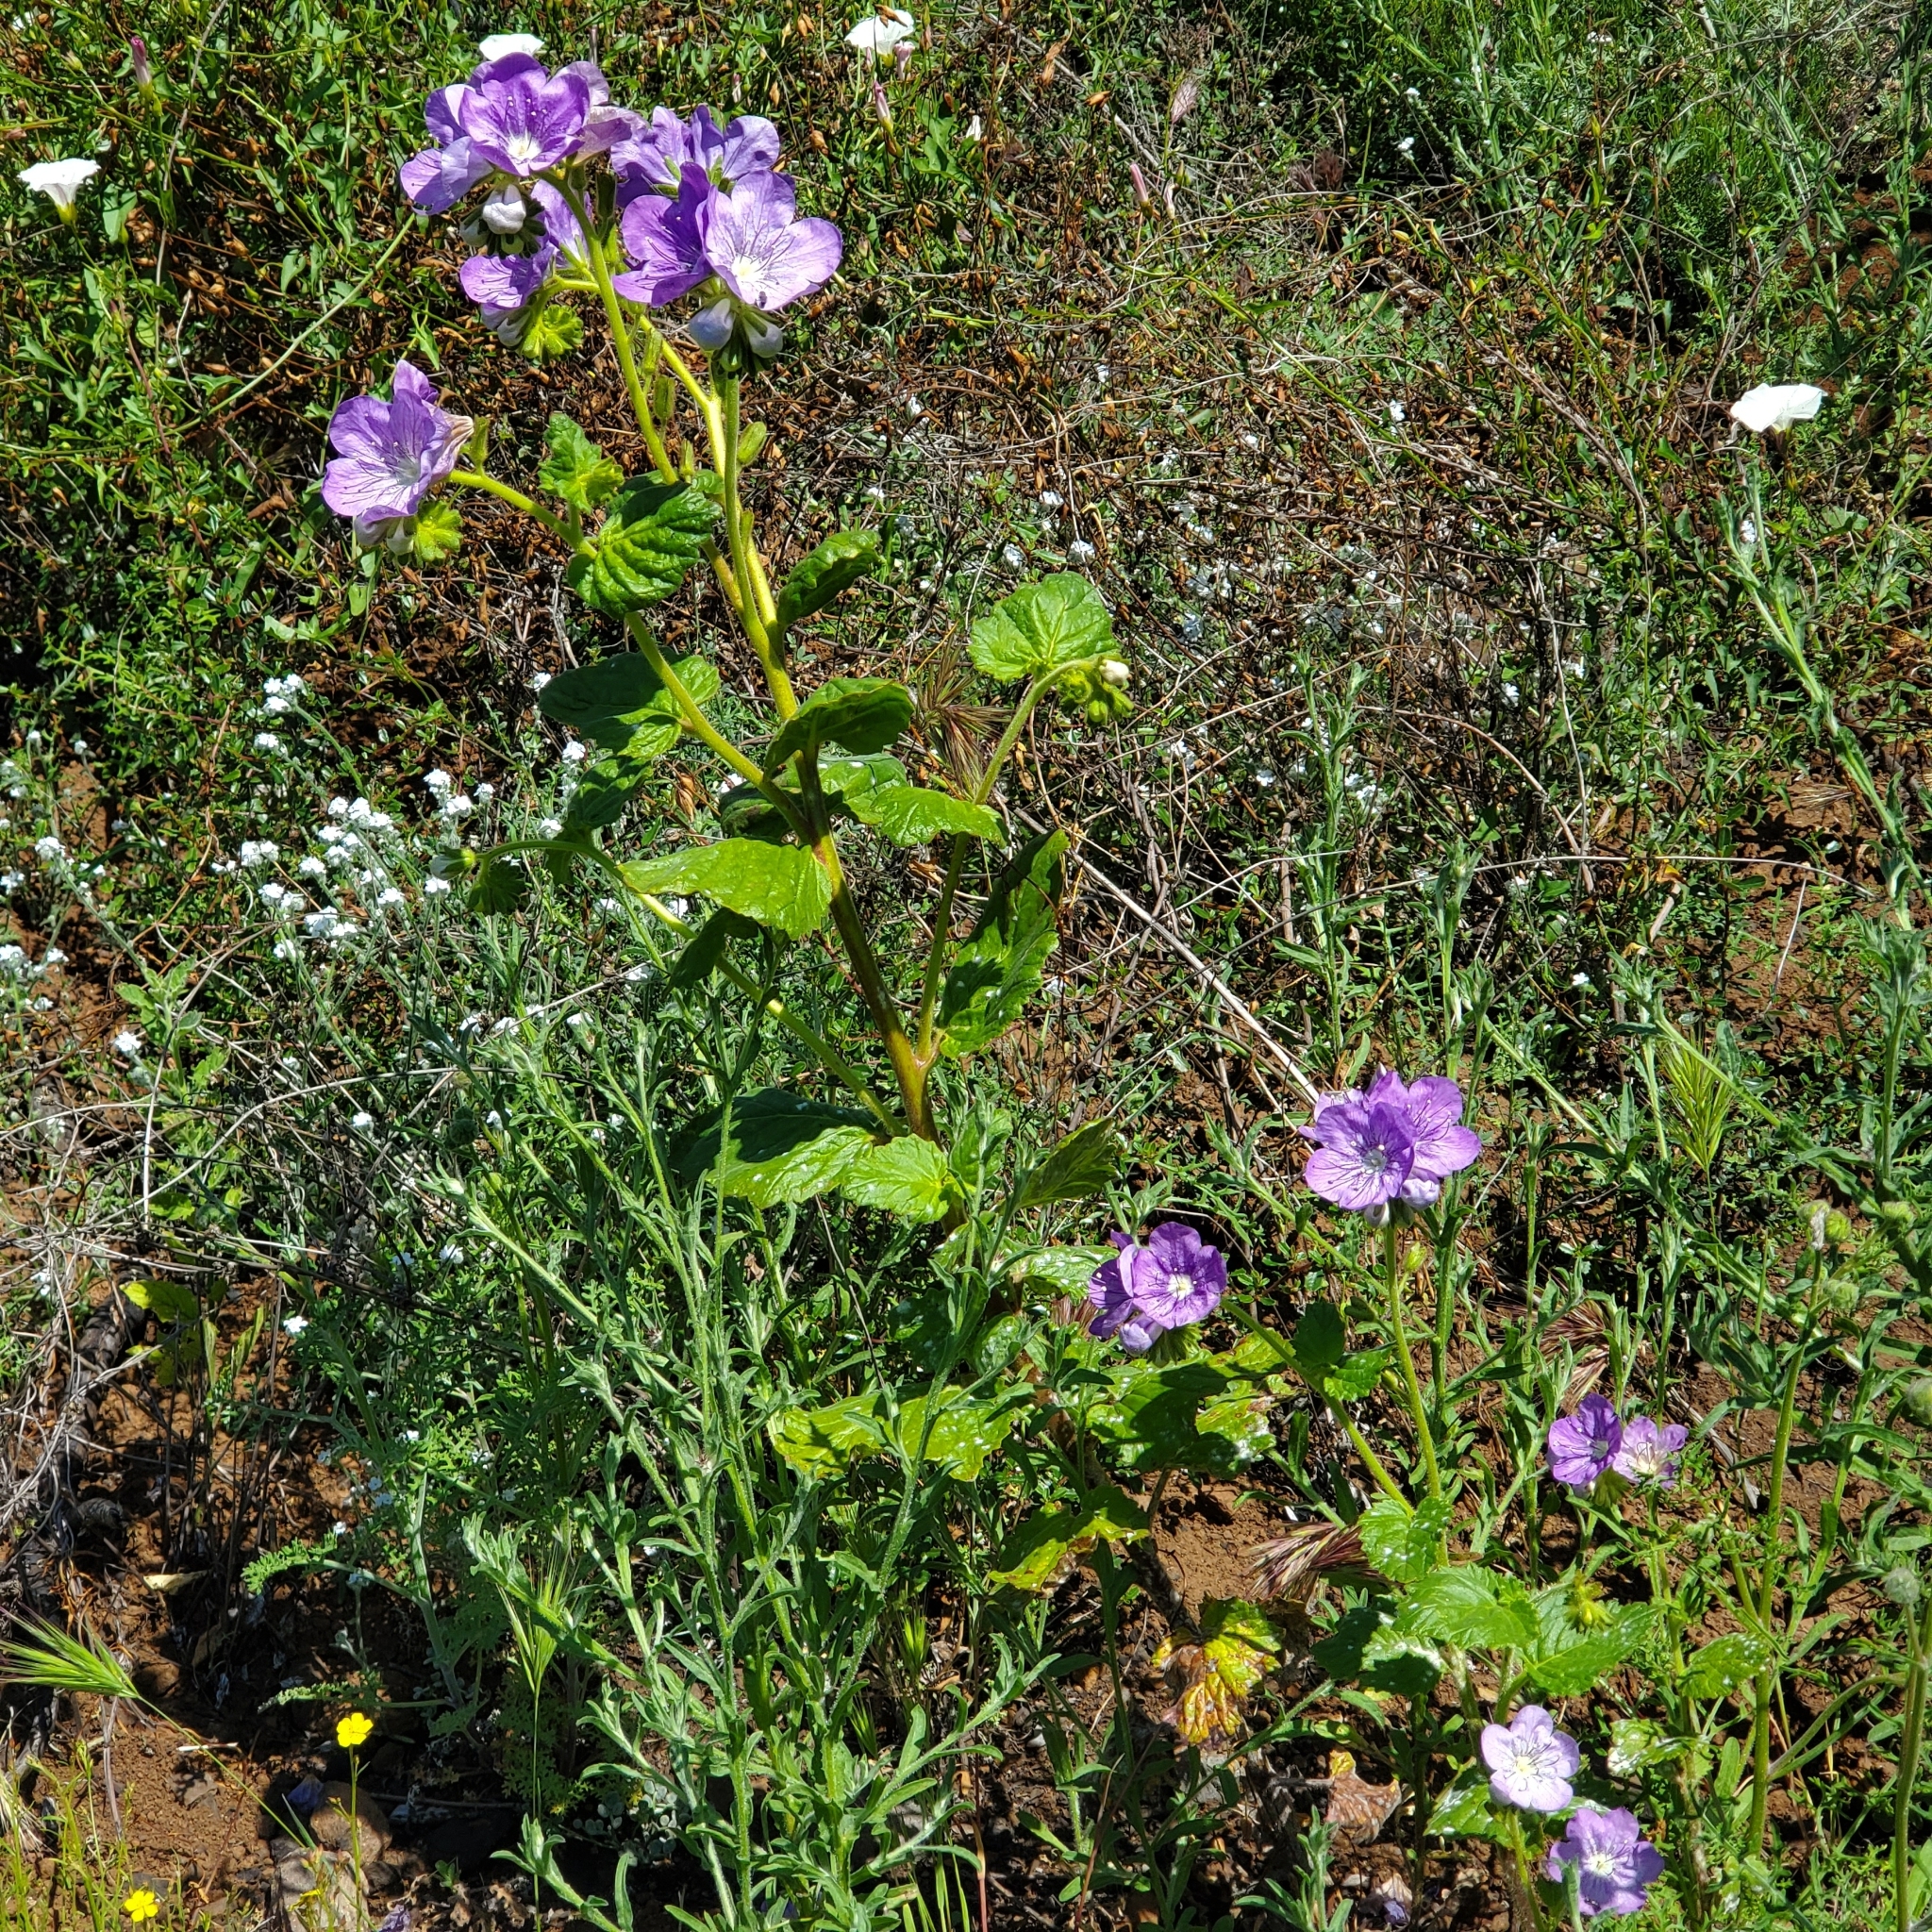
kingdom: Plantae
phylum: Tracheophyta
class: Magnoliopsida
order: Boraginales
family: Hydrophyllaceae
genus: Phacelia
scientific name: Phacelia grandiflora
